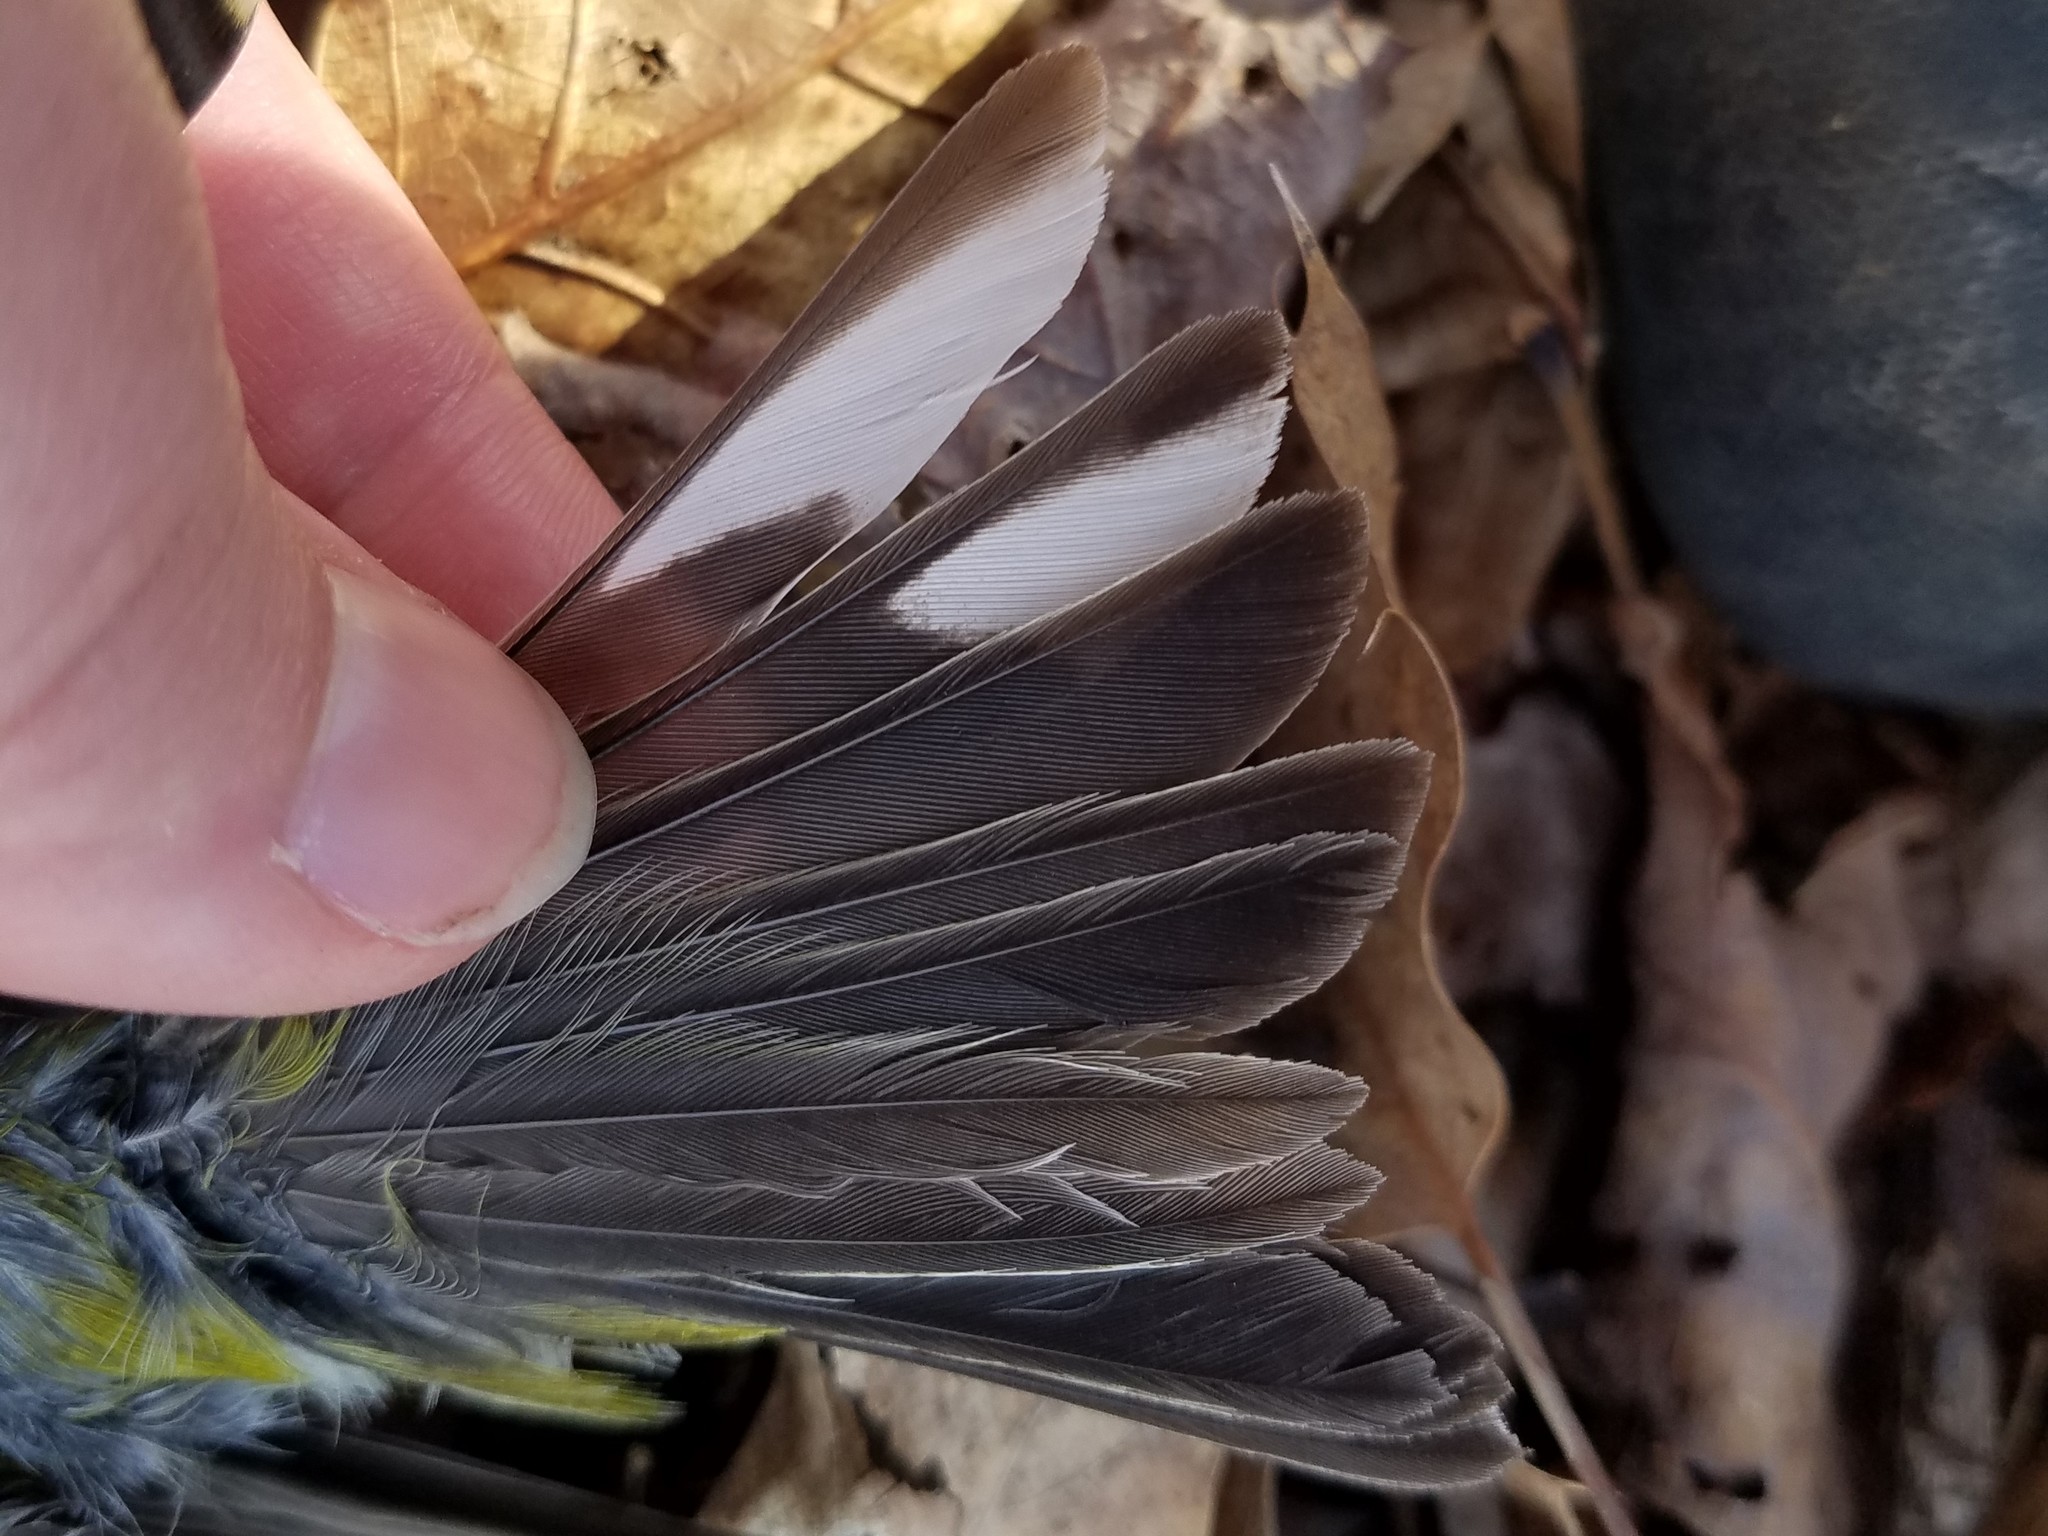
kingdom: Animalia
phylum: Chordata
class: Aves
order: Passeriformes
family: Parulidae
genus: Setophaga
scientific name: Setophaga pinus
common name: Pine warbler
